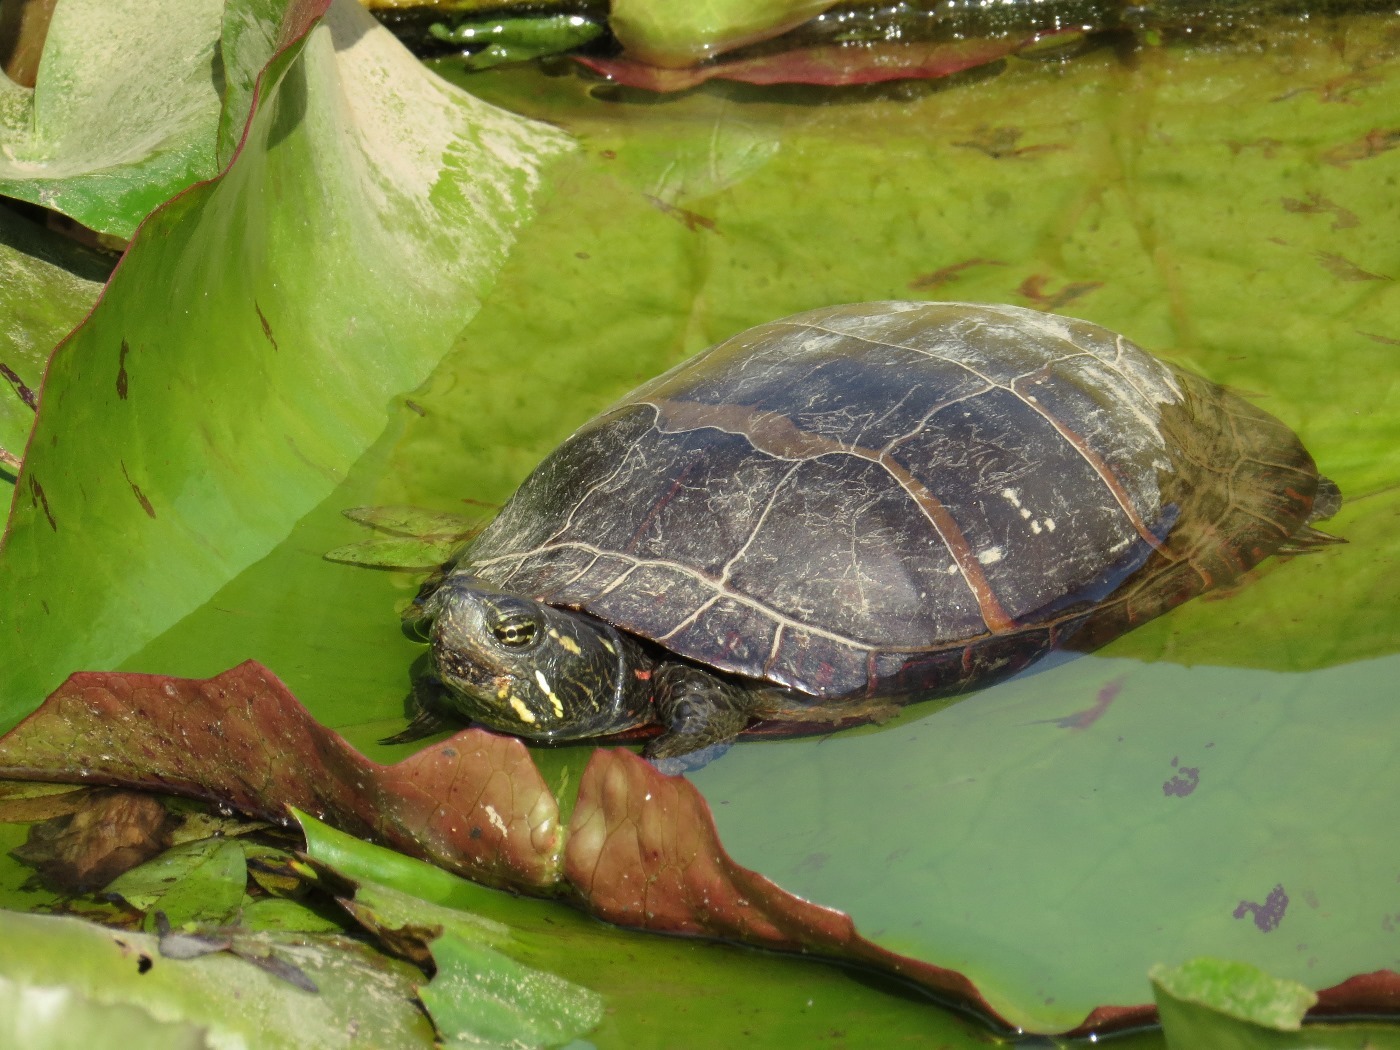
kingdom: Animalia
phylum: Chordata
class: Testudines
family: Emydidae
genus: Chrysemys
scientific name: Chrysemys picta
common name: Painted turtle
